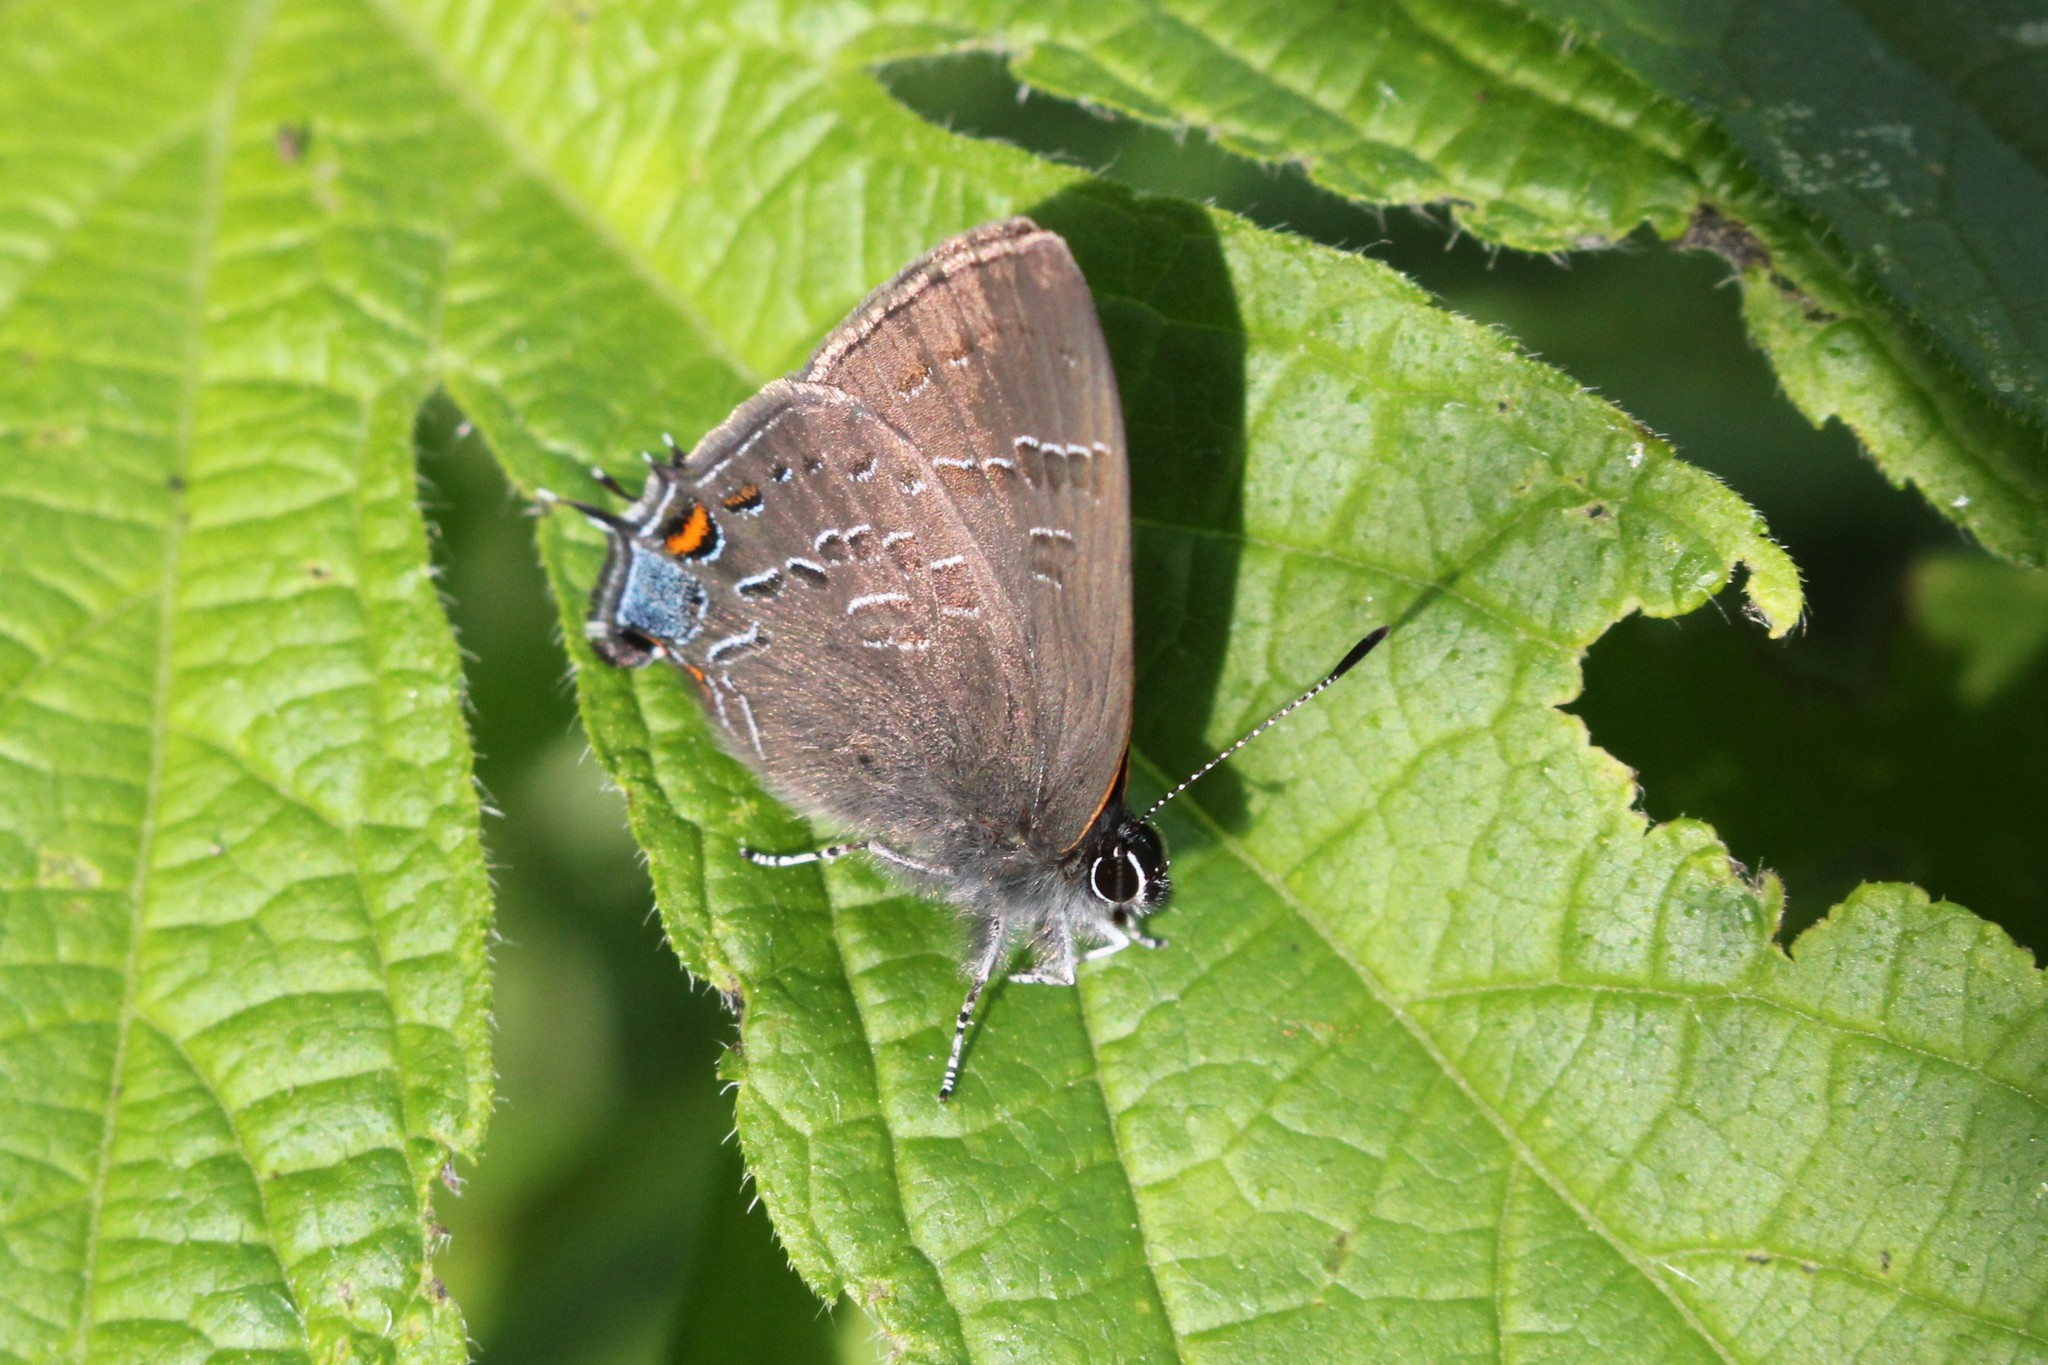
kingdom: Animalia
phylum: Arthropoda
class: Insecta
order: Lepidoptera
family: Lycaenidae
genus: Satyrium
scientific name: Satyrium calanus
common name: Banded hairstreak
